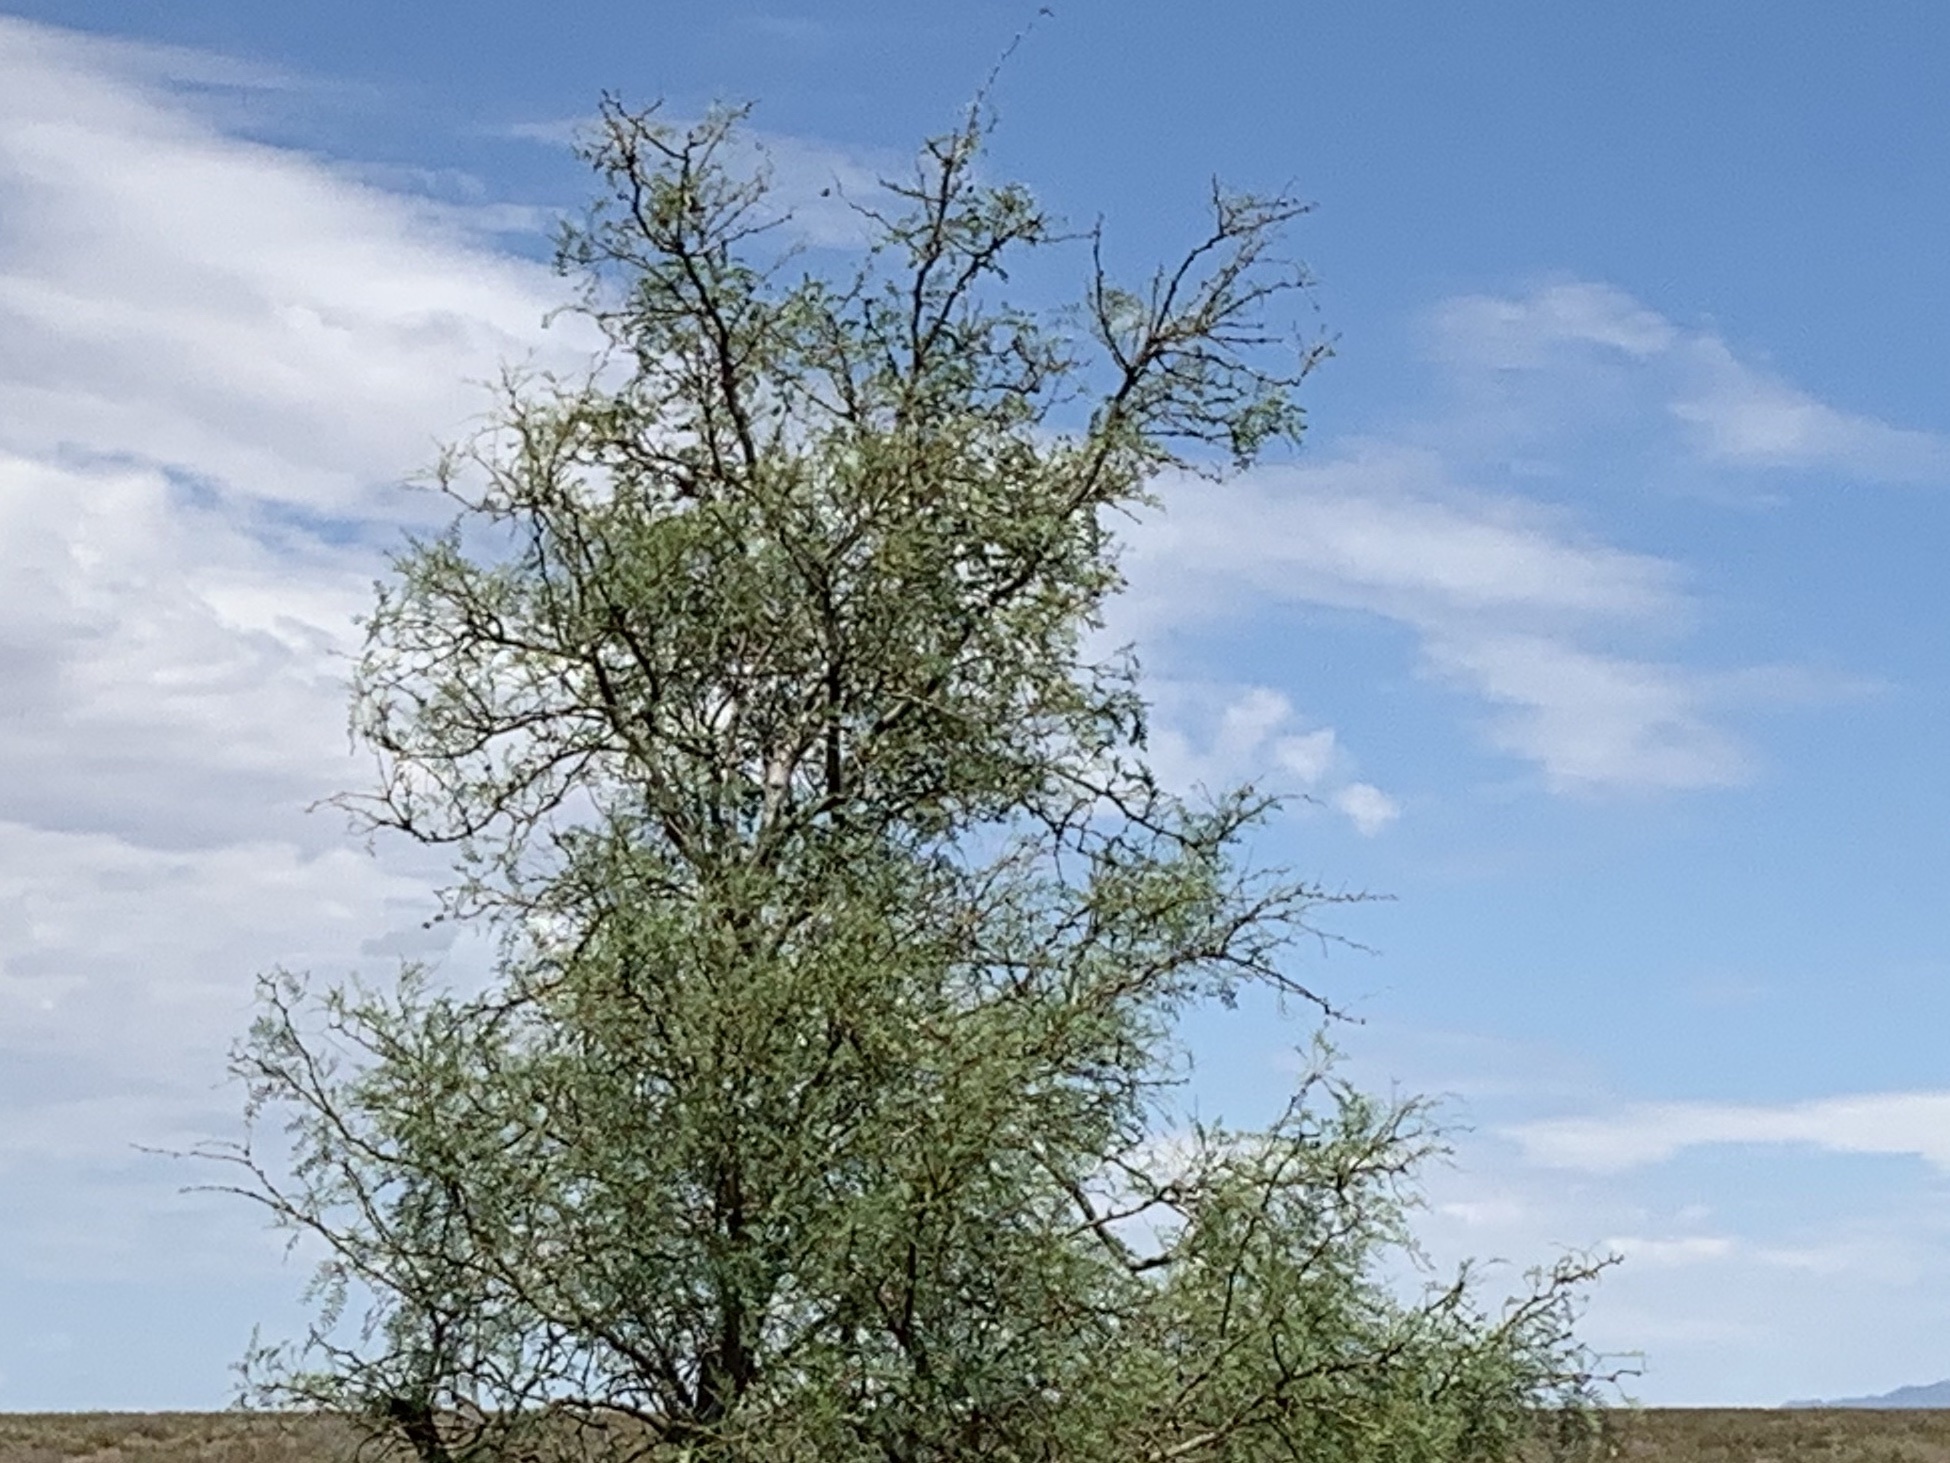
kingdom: Plantae
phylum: Tracheophyta
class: Magnoliopsida
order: Fabales
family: Fabaceae
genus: Prosopis
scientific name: Prosopis glandulosa
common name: Honey mesquite
